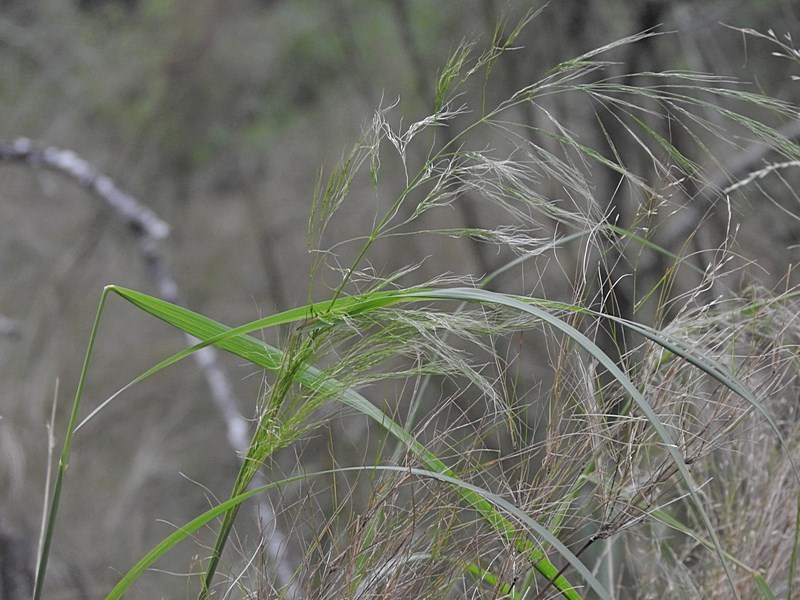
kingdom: Plantae
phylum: Tracheophyta
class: Liliopsida
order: Poales
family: Poaceae
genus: Austrostipa
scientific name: Austrostipa ramosissima
